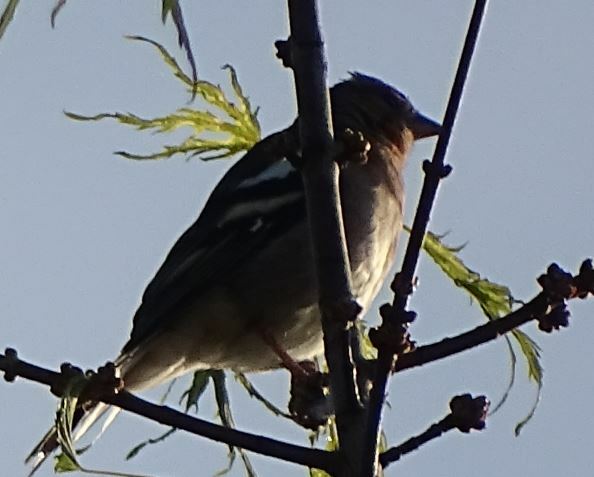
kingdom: Animalia
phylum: Chordata
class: Aves
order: Passeriformes
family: Fringillidae
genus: Fringilla
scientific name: Fringilla coelebs
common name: Common chaffinch
